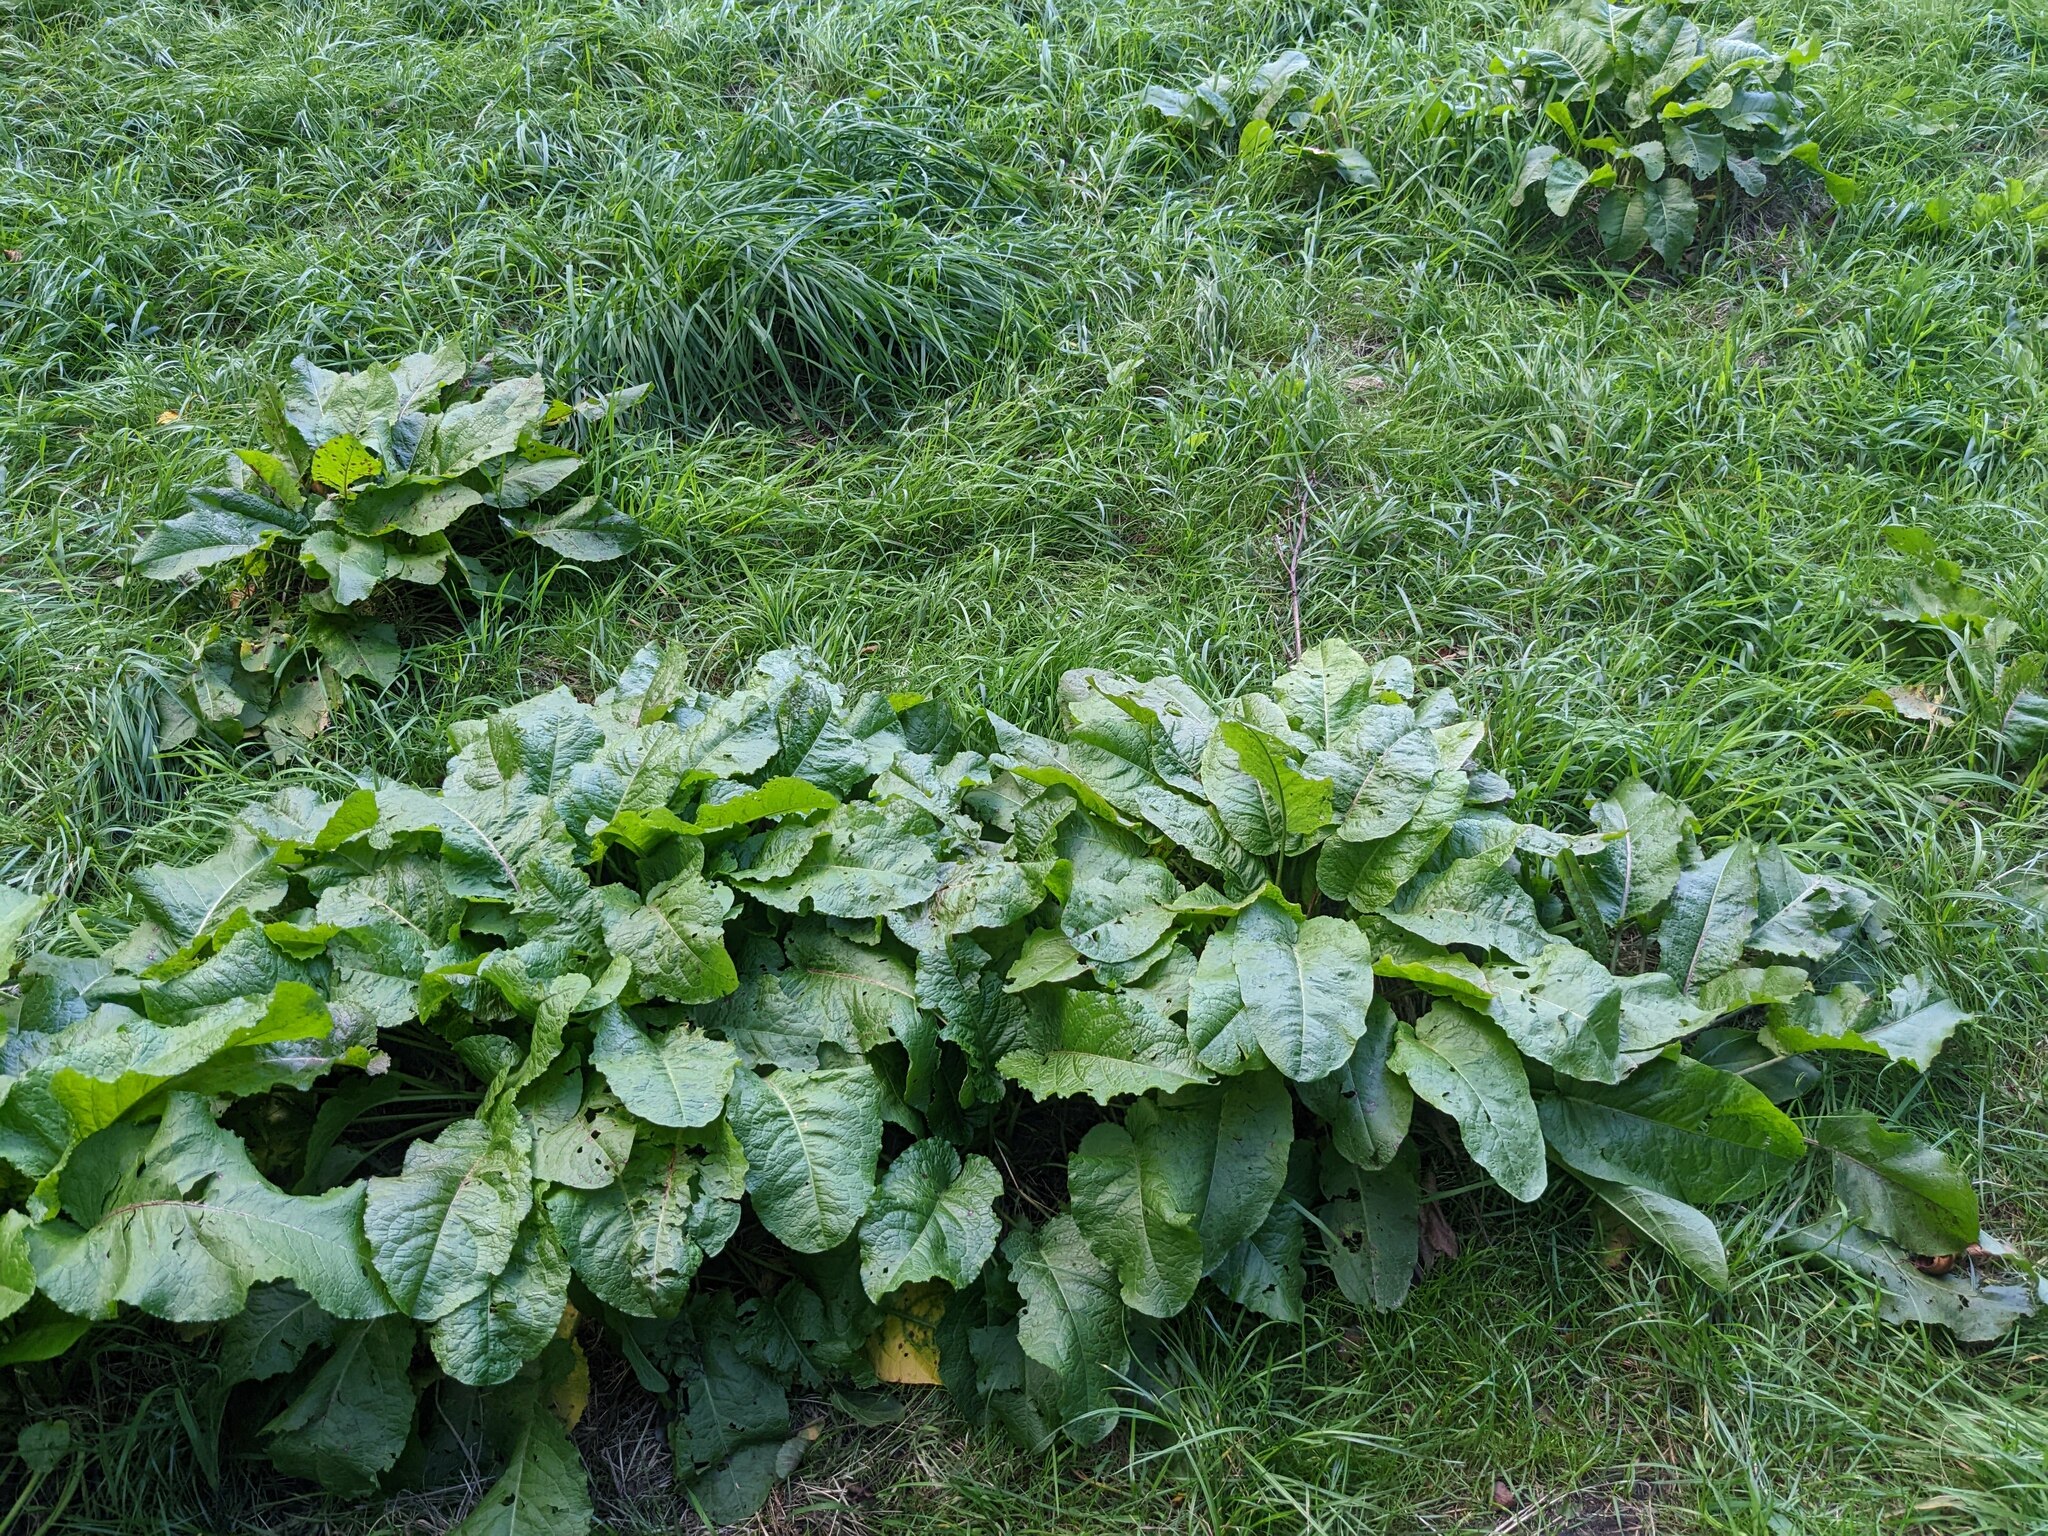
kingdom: Plantae
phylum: Tracheophyta
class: Magnoliopsida
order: Caryophyllales
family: Polygonaceae
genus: Rumex
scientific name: Rumex obtusifolius
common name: Bitter dock
